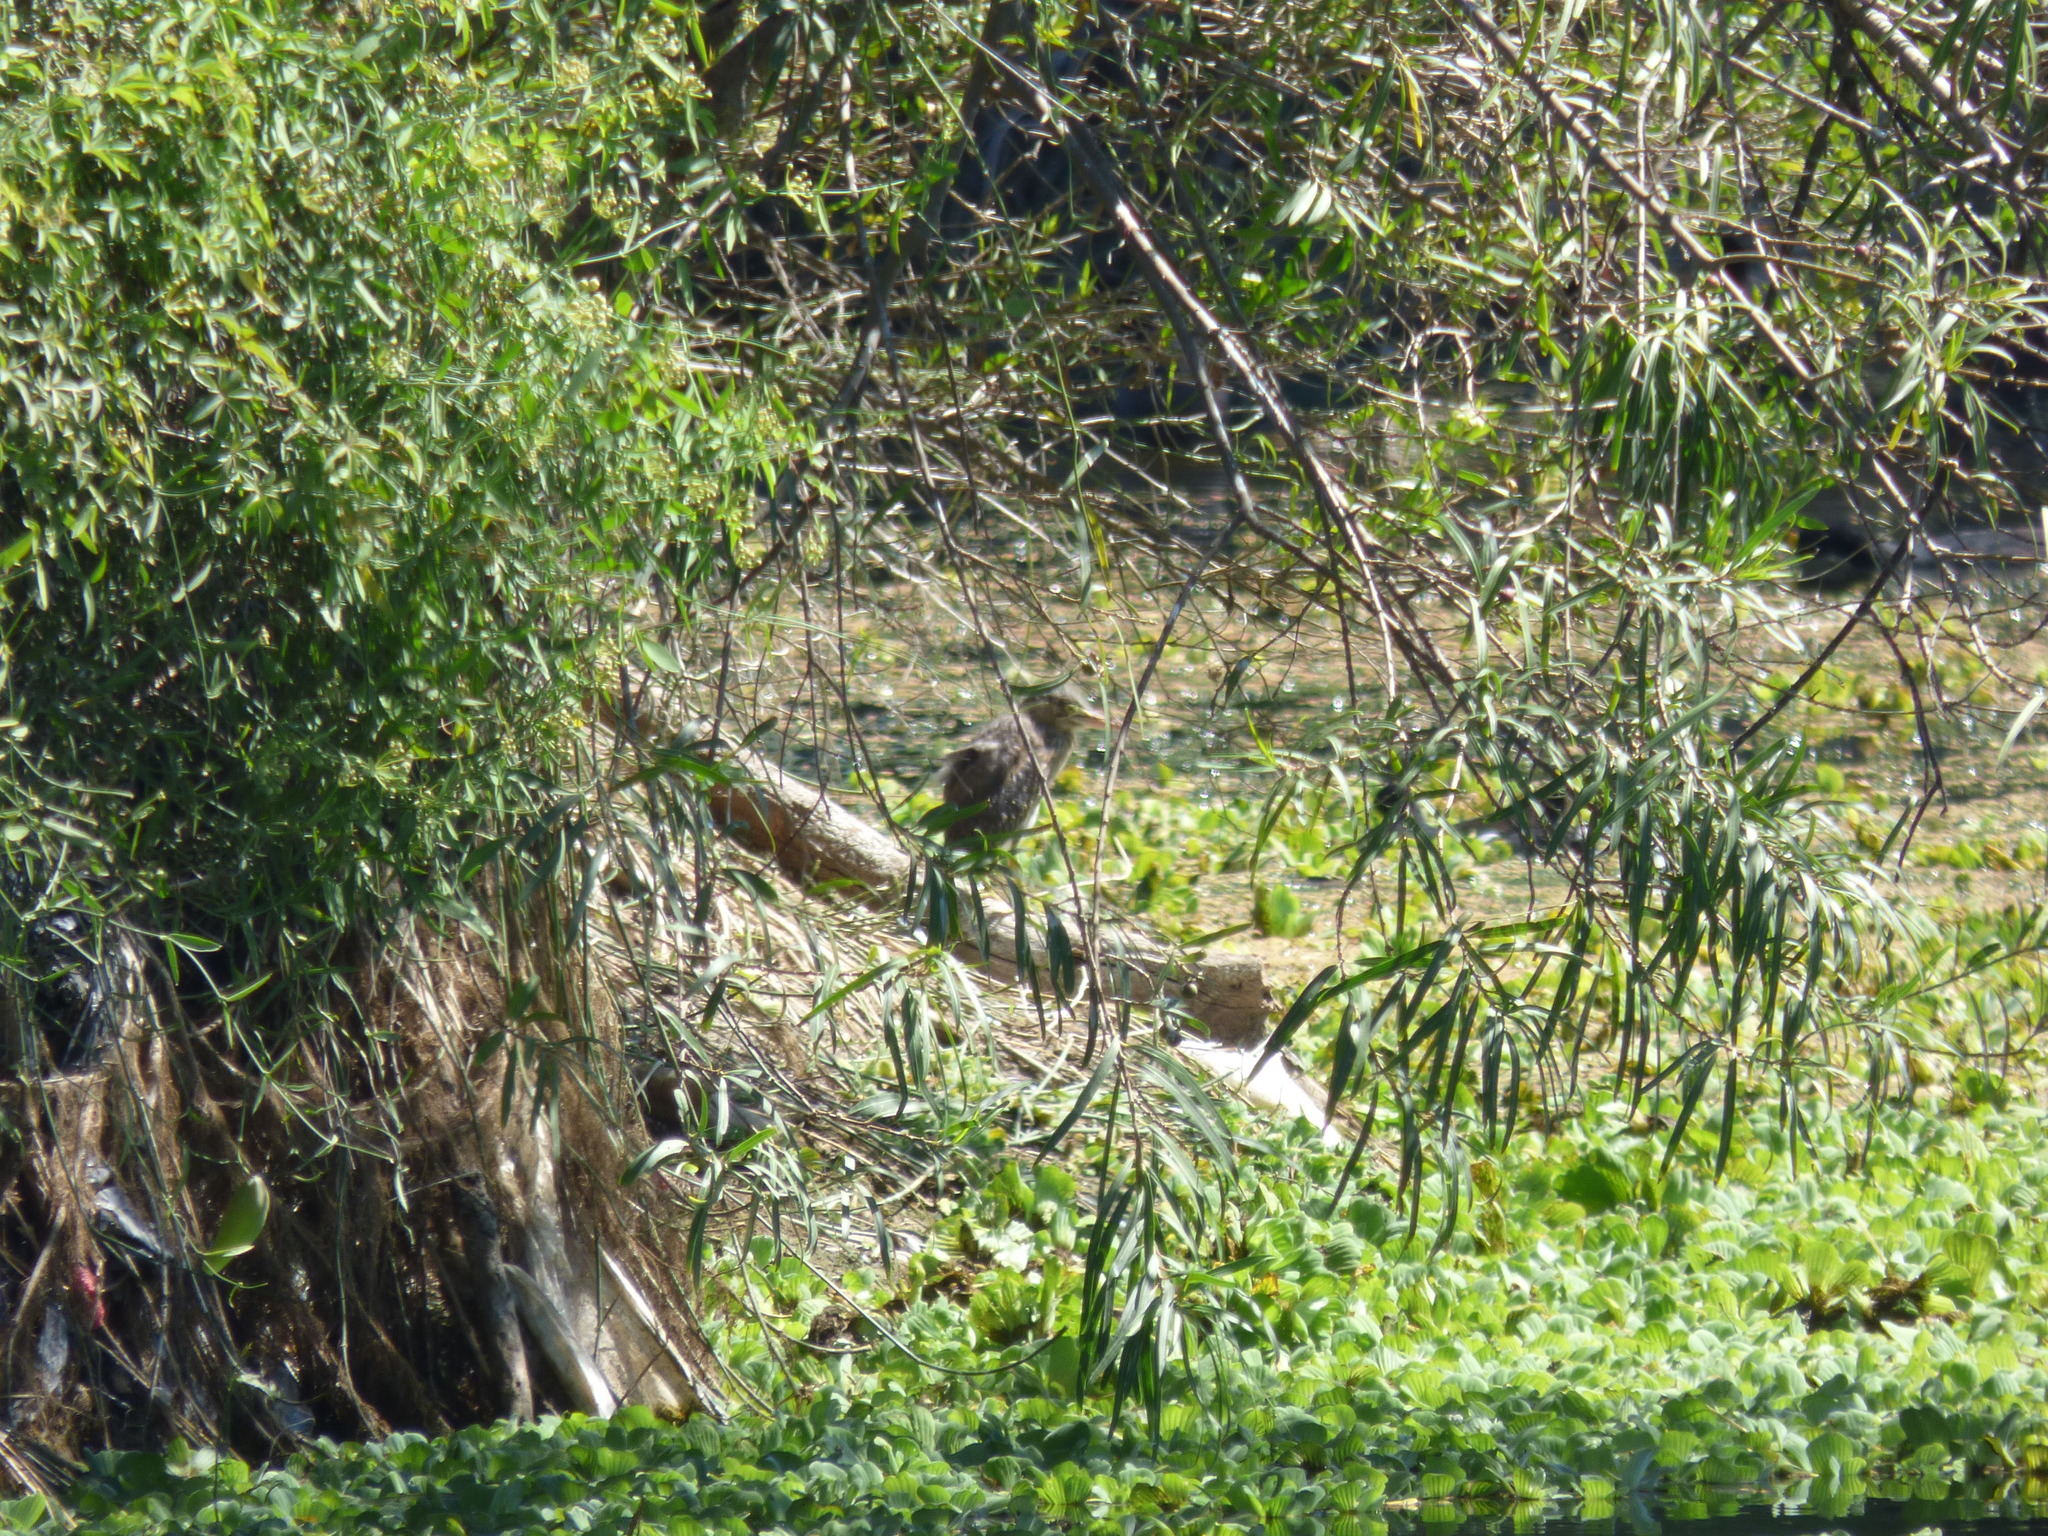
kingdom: Animalia
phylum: Chordata
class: Aves
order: Pelecaniformes
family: Ardeidae
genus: Nycticorax
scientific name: Nycticorax nycticorax
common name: Black-crowned night heron
